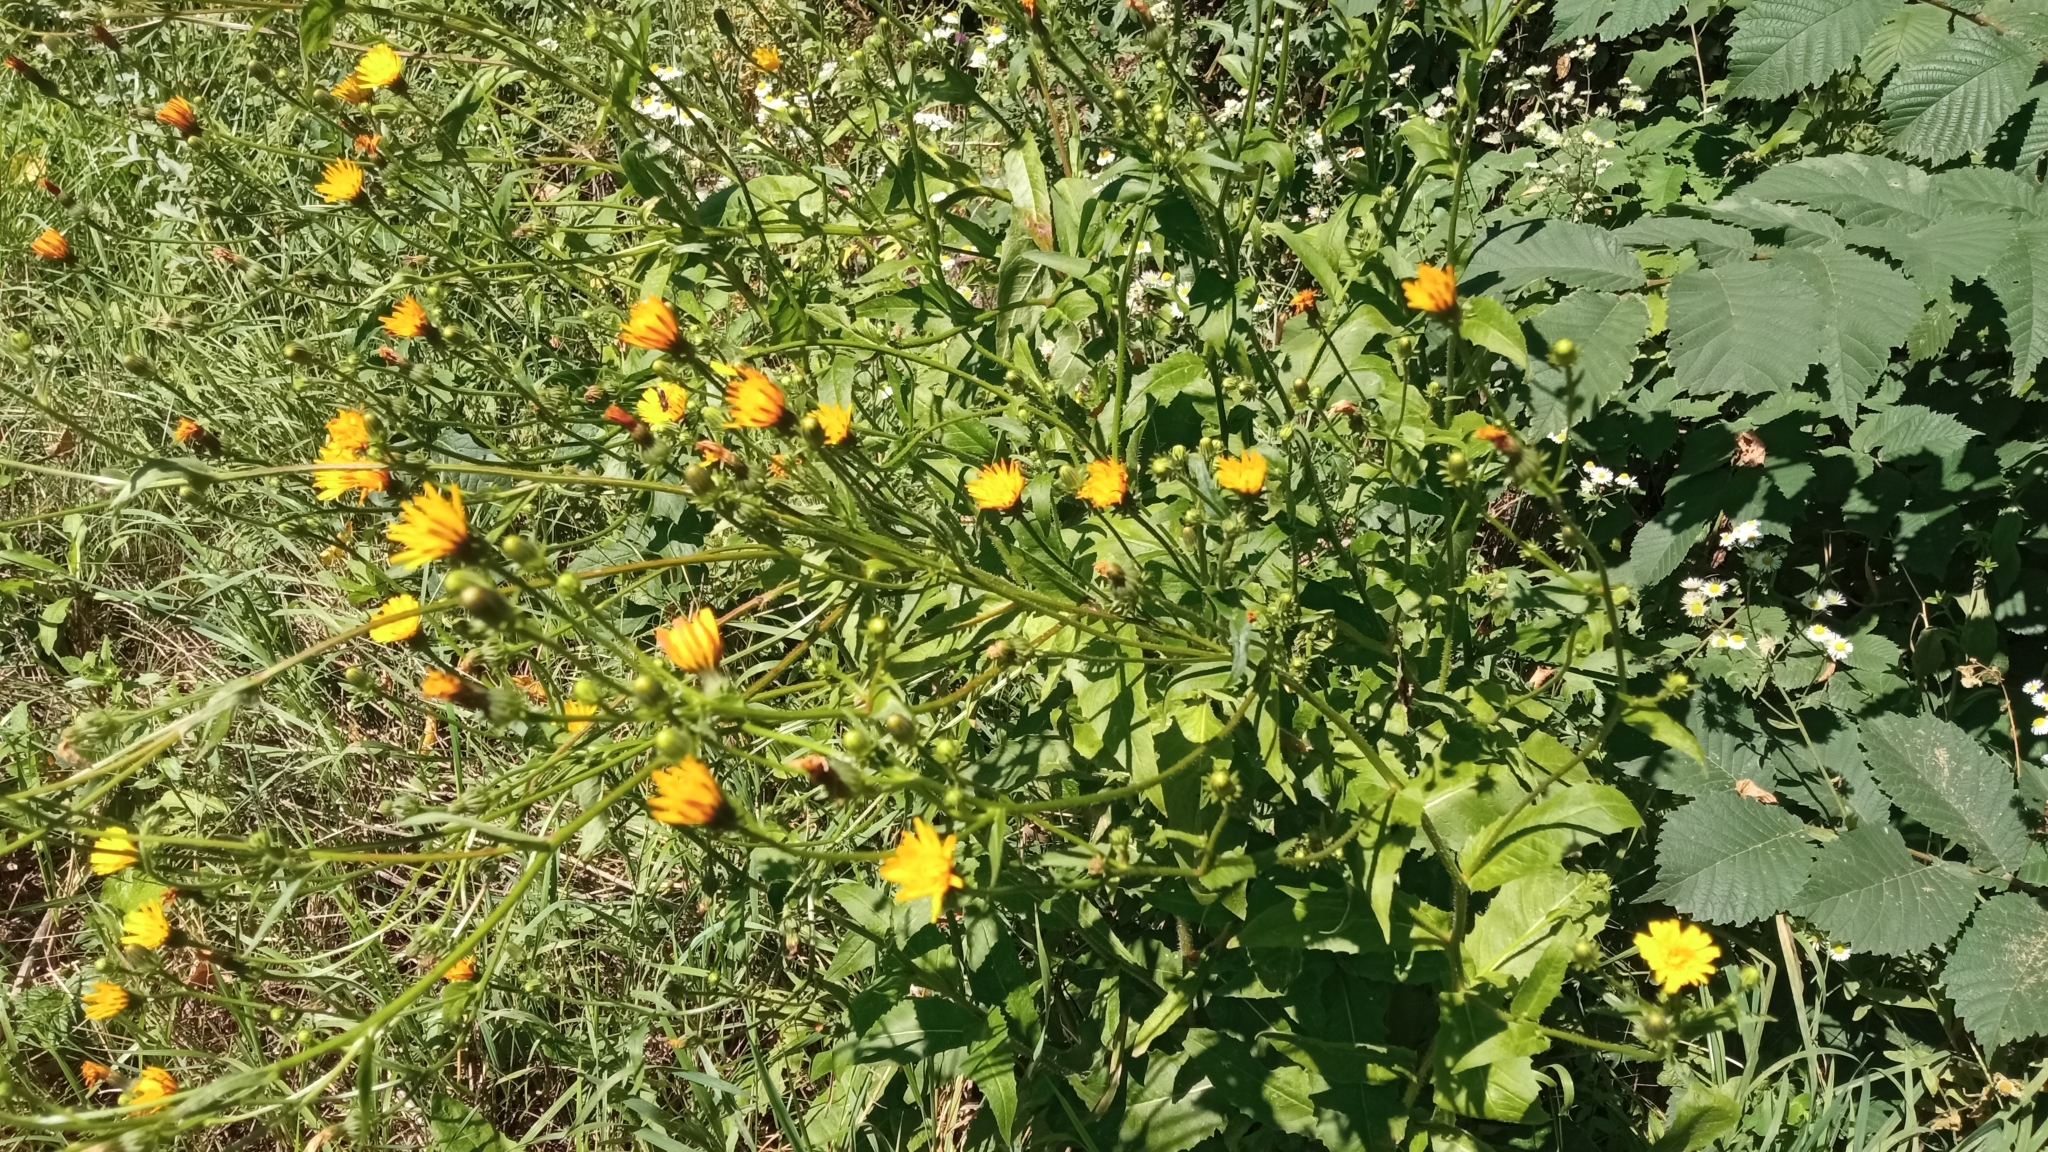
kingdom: Plantae
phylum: Tracheophyta
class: Magnoliopsida
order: Asterales
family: Asteraceae
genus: Picris
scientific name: Picris hieracioides
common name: Hawkweed oxtongue
